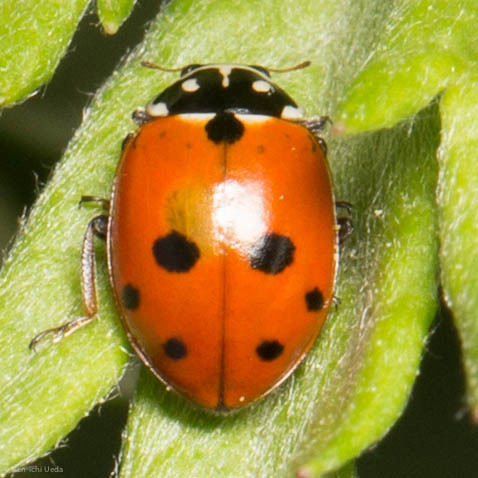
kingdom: Animalia
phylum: Arthropoda
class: Insecta
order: Coleoptera
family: Coccinellidae
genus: Hippodamia
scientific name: Hippodamia variegata
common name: Ladybird beetle
